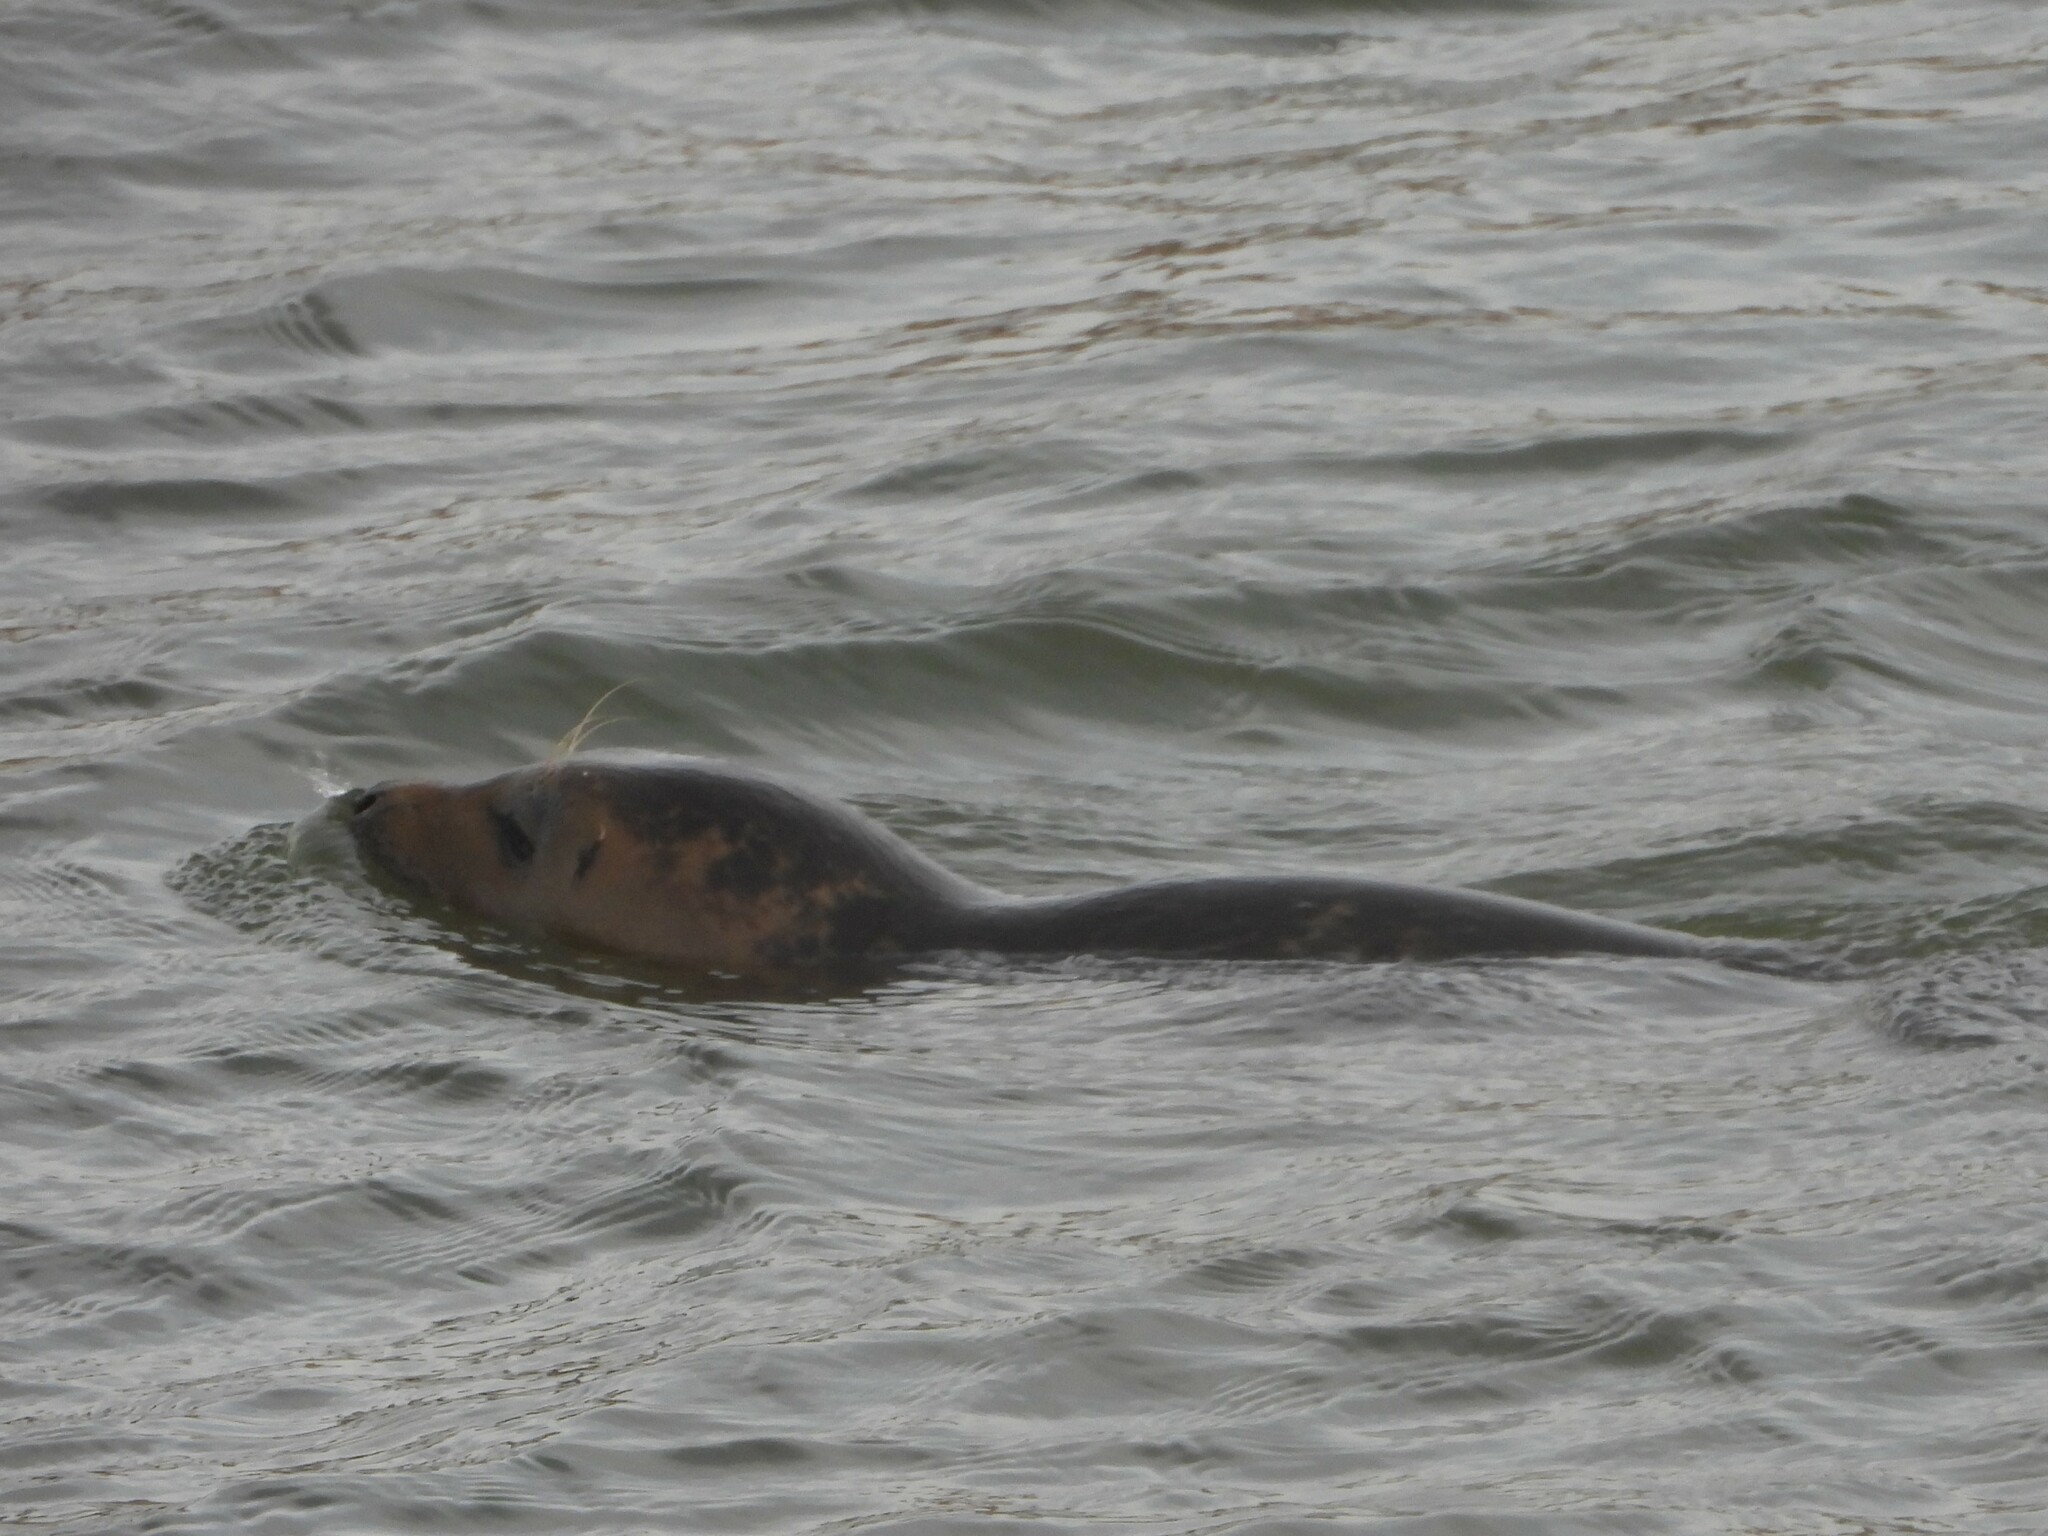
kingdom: Animalia
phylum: Chordata
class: Mammalia
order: Carnivora
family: Phocidae
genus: Phoca
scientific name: Phoca vitulina
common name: Harbor seal
